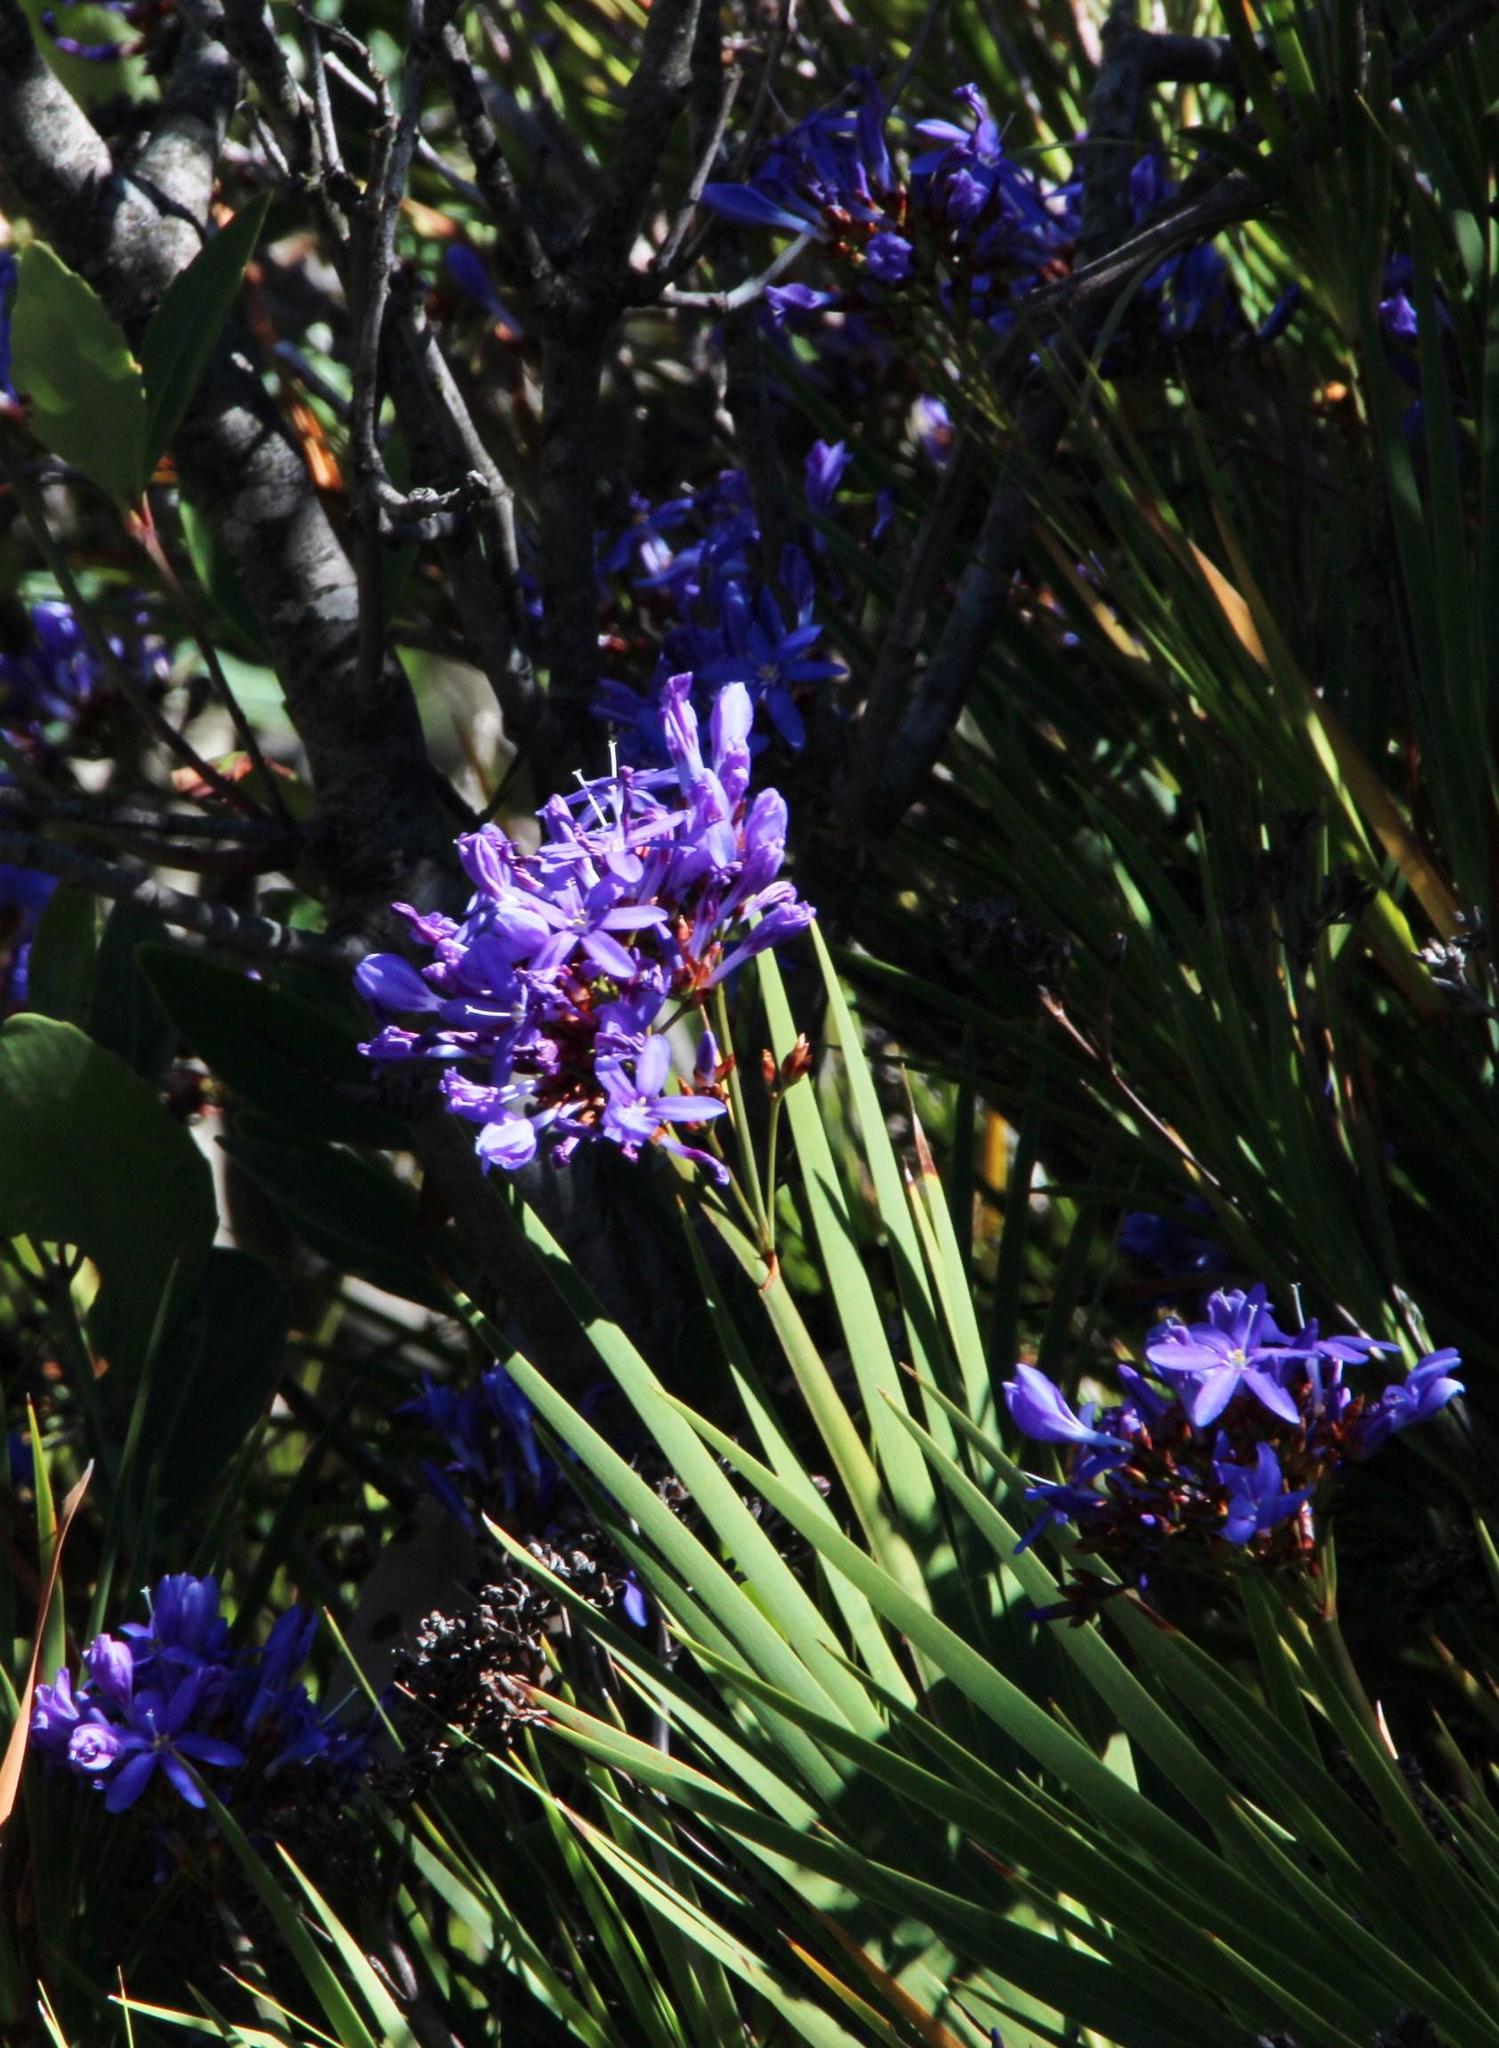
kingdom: Plantae
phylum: Tracheophyta
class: Liliopsida
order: Asparagales
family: Iridaceae
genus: Nivenia
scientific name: Nivenia corymbosa
